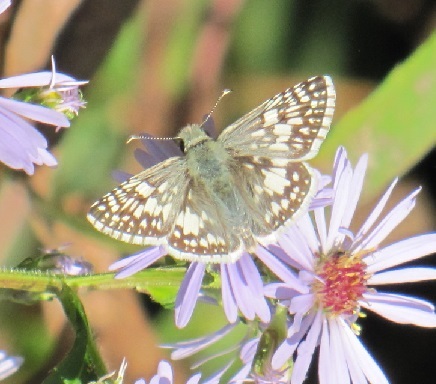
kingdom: Animalia
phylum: Arthropoda
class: Insecta
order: Lepidoptera
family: Hesperiidae
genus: Burnsius
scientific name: Burnsius communis
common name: Common checkered-skipper
